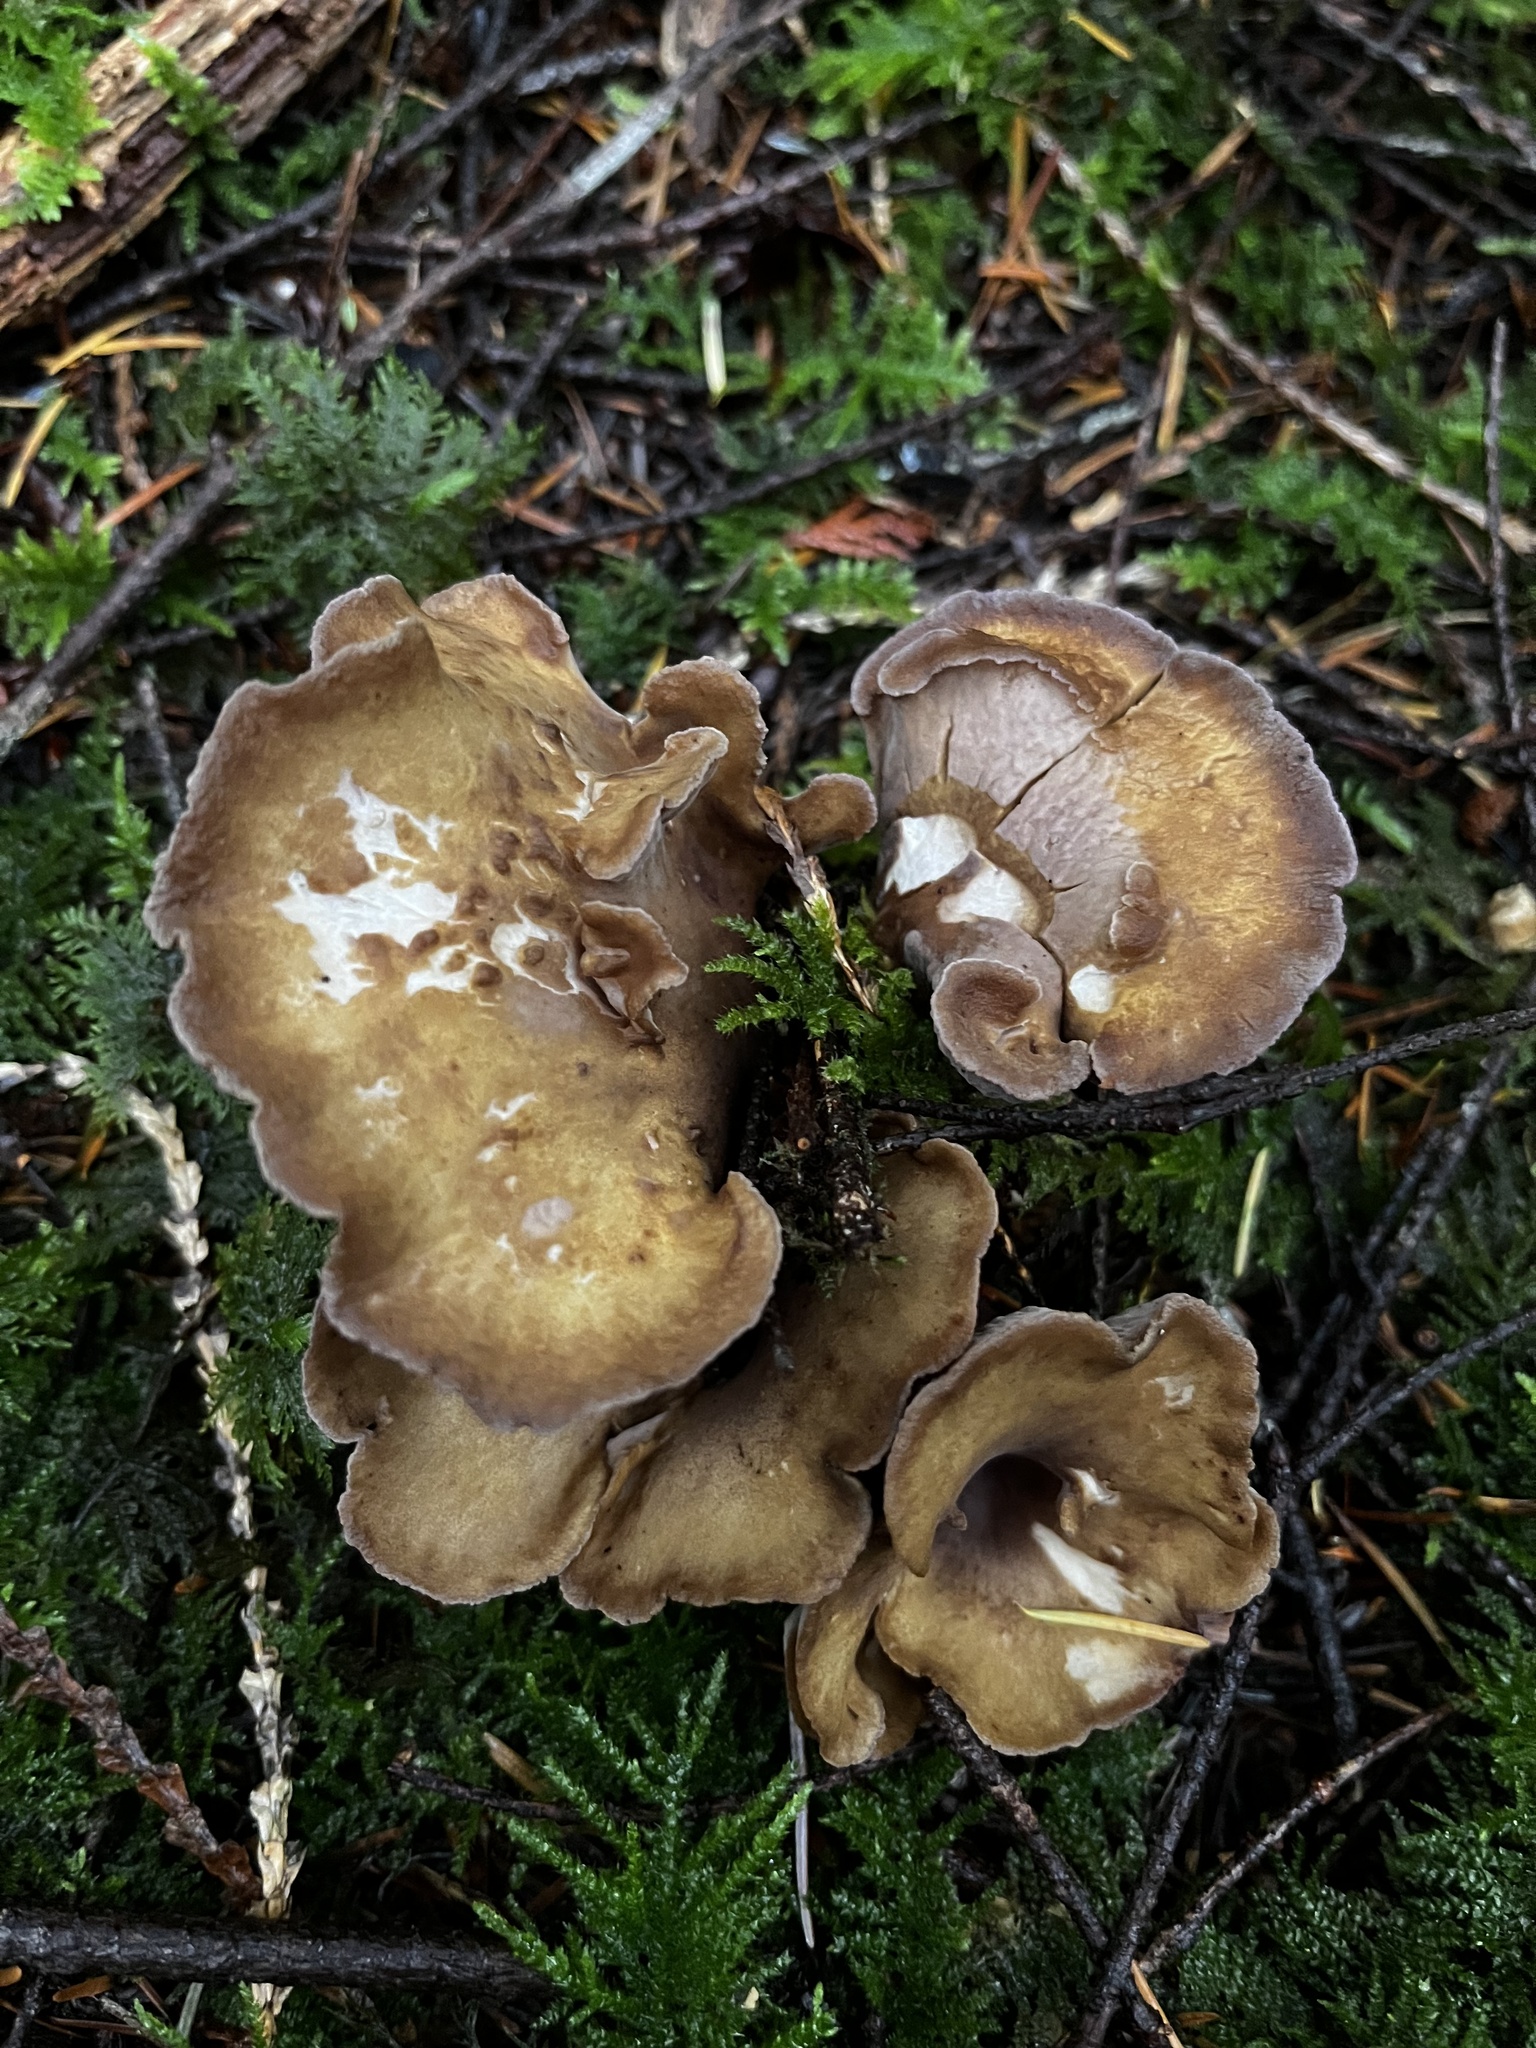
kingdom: Fungi
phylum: Basidiomycota
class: Agaricomycetes
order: Gomphales
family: Gomphaceae
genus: Gomphus
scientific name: Gomphus clavatus
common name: Pig's ear
